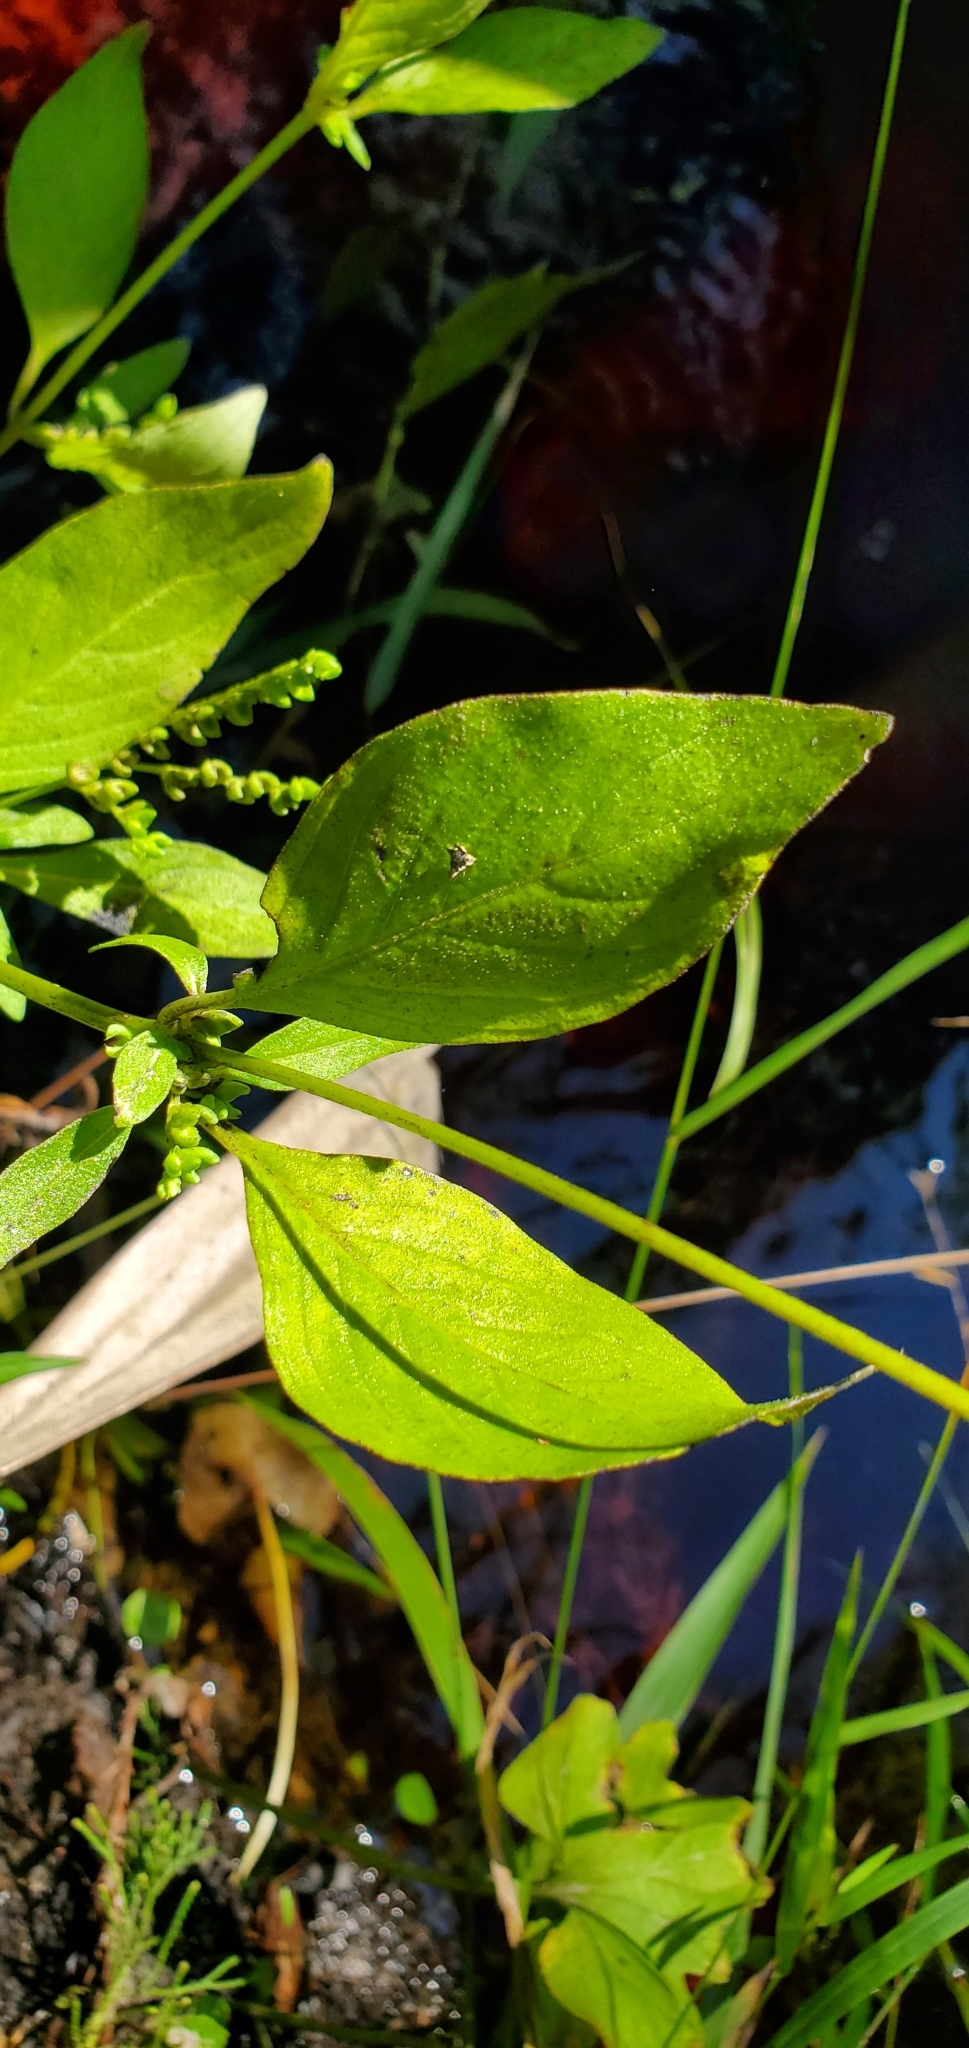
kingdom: Plantae
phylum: Tracheophyta
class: Magnoliopsida
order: Gentianales
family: Loganiaceae
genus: Mitreola
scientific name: Mitreola petiolata
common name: Lax hornpod
